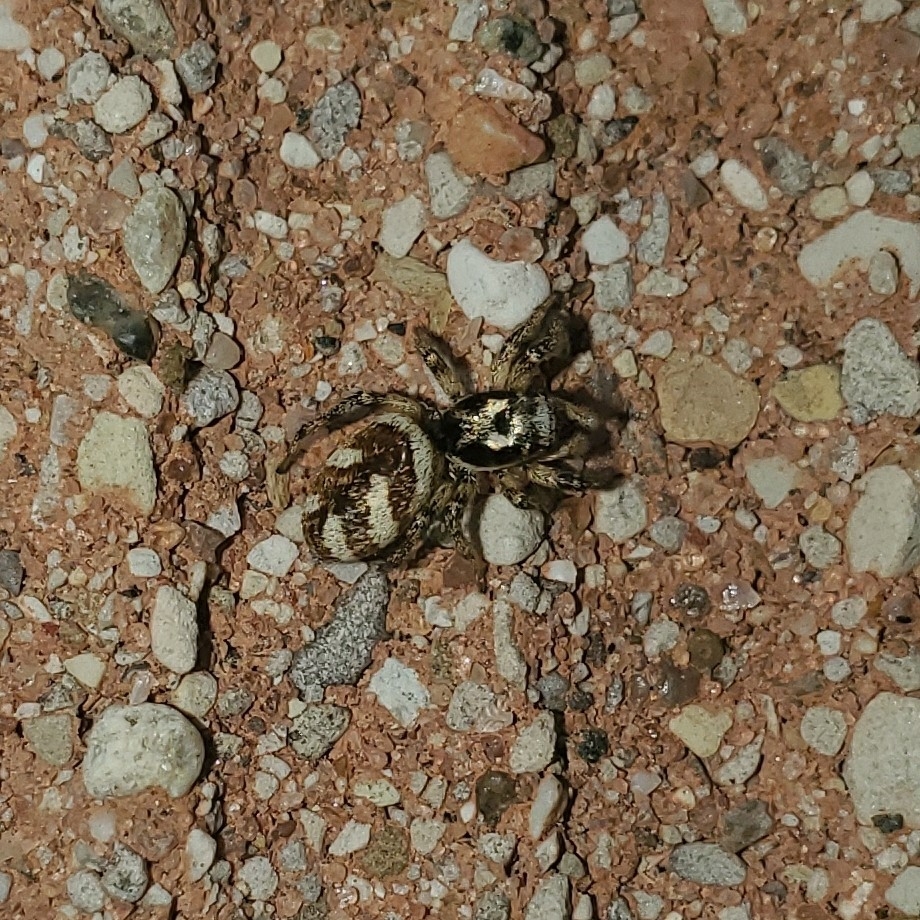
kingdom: Animalia
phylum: Arthropoda
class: Arachnida
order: Araneae
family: Salticidae
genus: Salticus
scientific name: Salticus scenicus
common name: Zebra jumper
